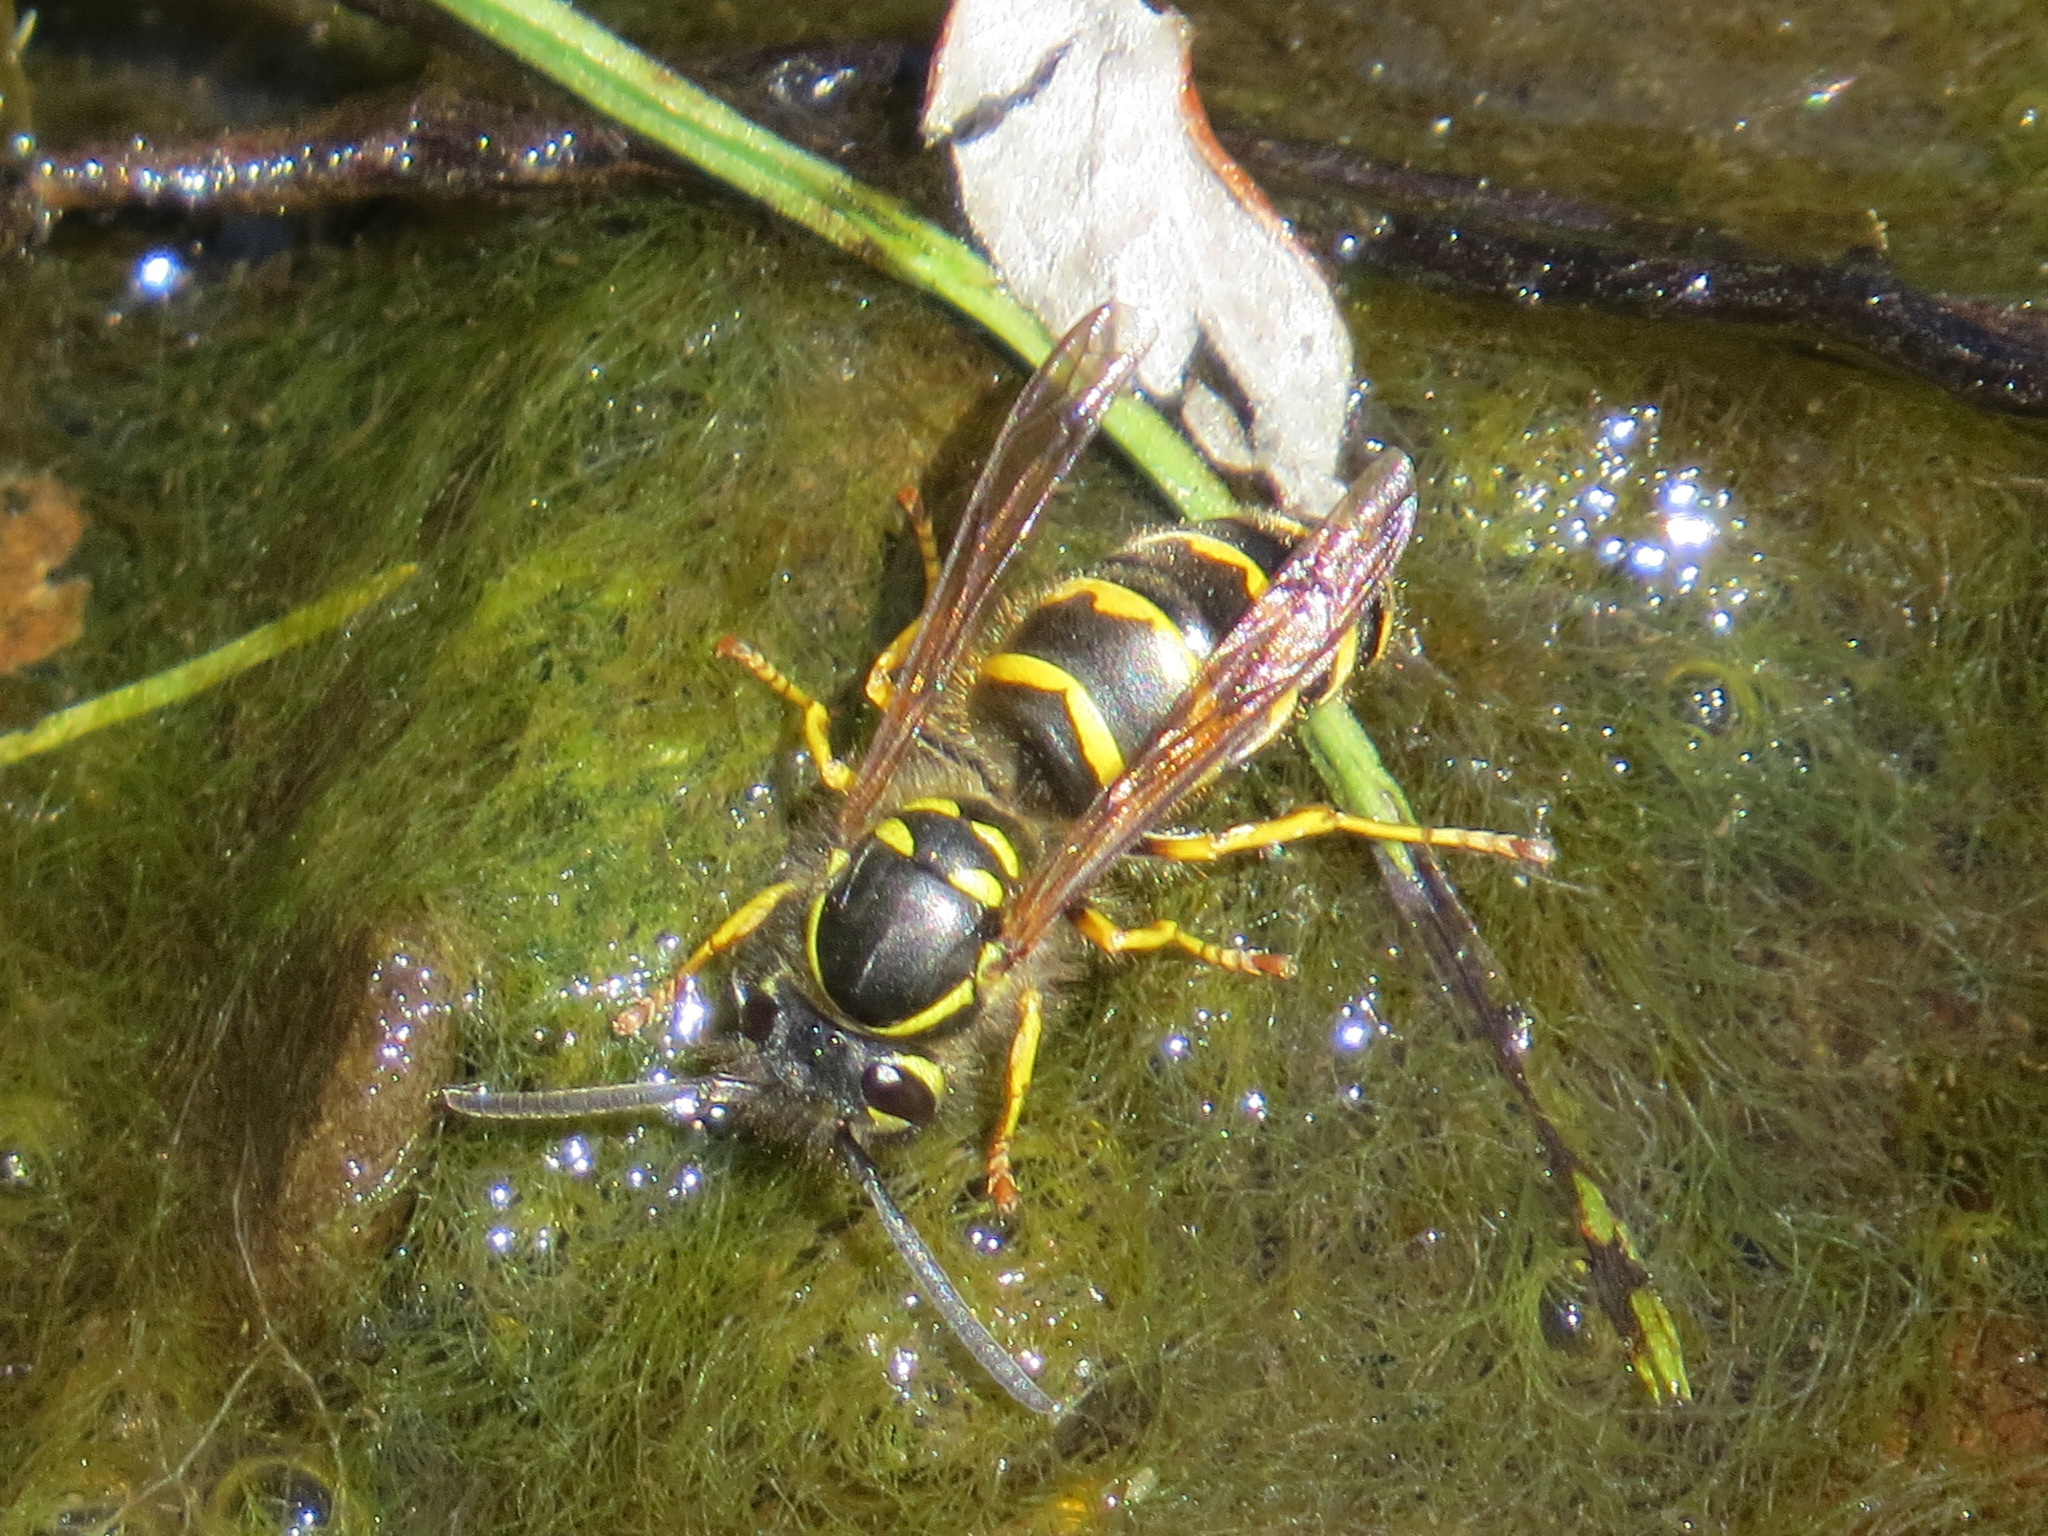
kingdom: Animalia
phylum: Arthropoda
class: Insecta
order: Hymenoptera
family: Vespidae
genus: Vespula
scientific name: Vespula alascensis
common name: Alaska yellowjacket
